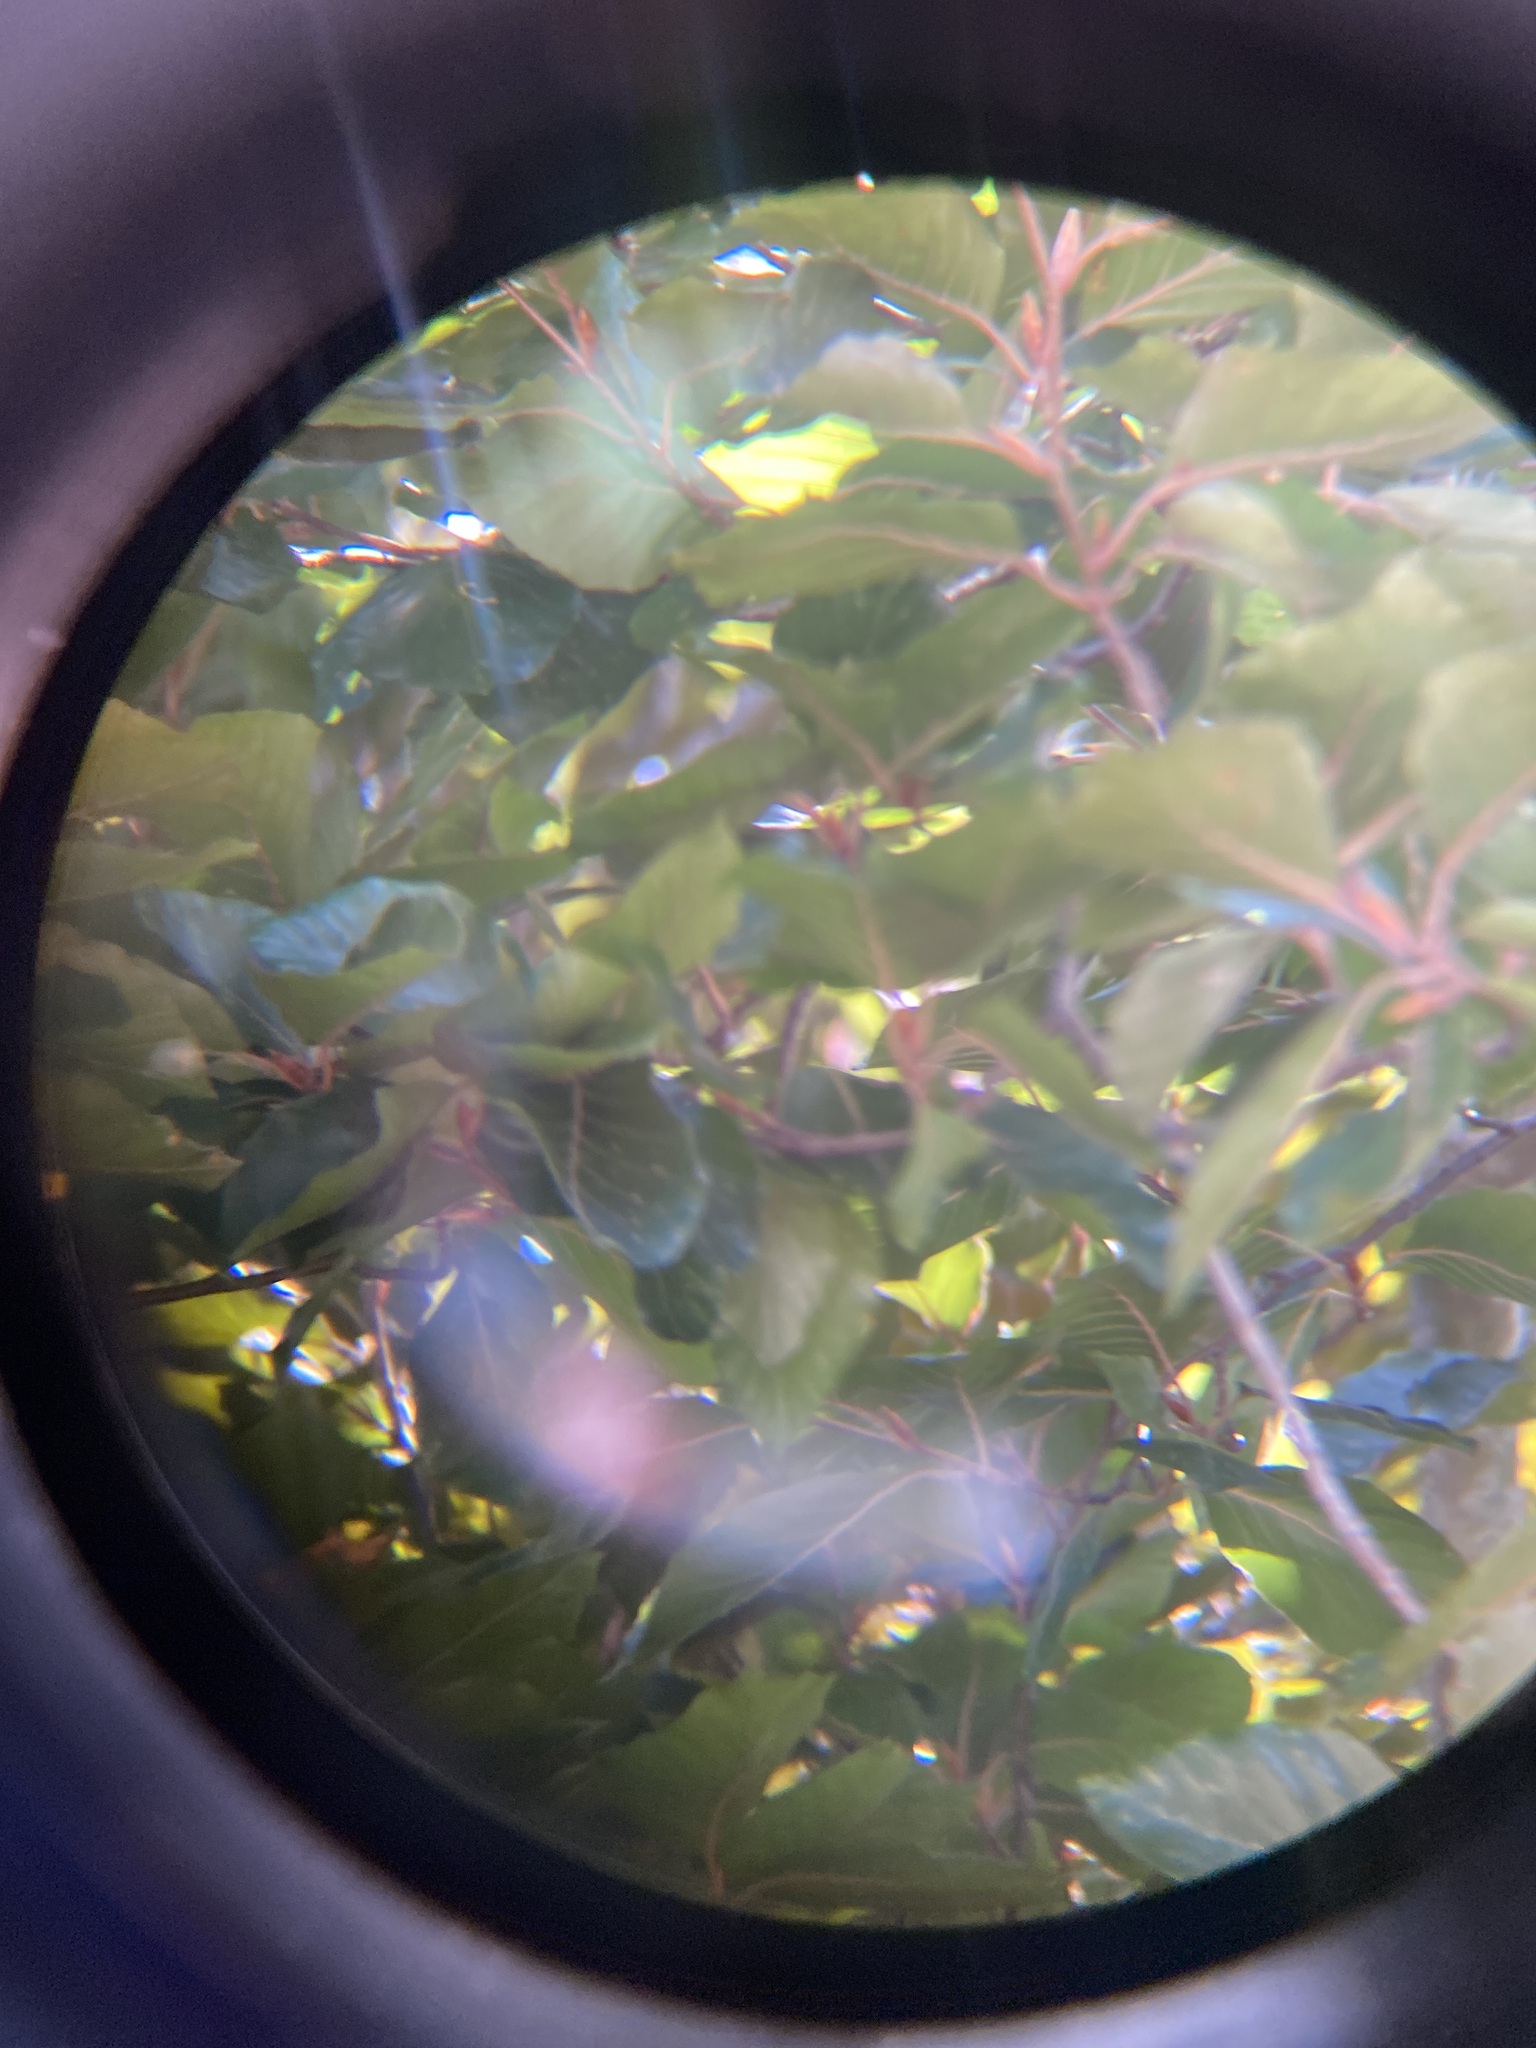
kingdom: Animalia
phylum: Arthropoda
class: Insecta
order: Hymenoptera
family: Vespidae
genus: Vespa
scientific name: Vespa velutina
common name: Asian hornet
